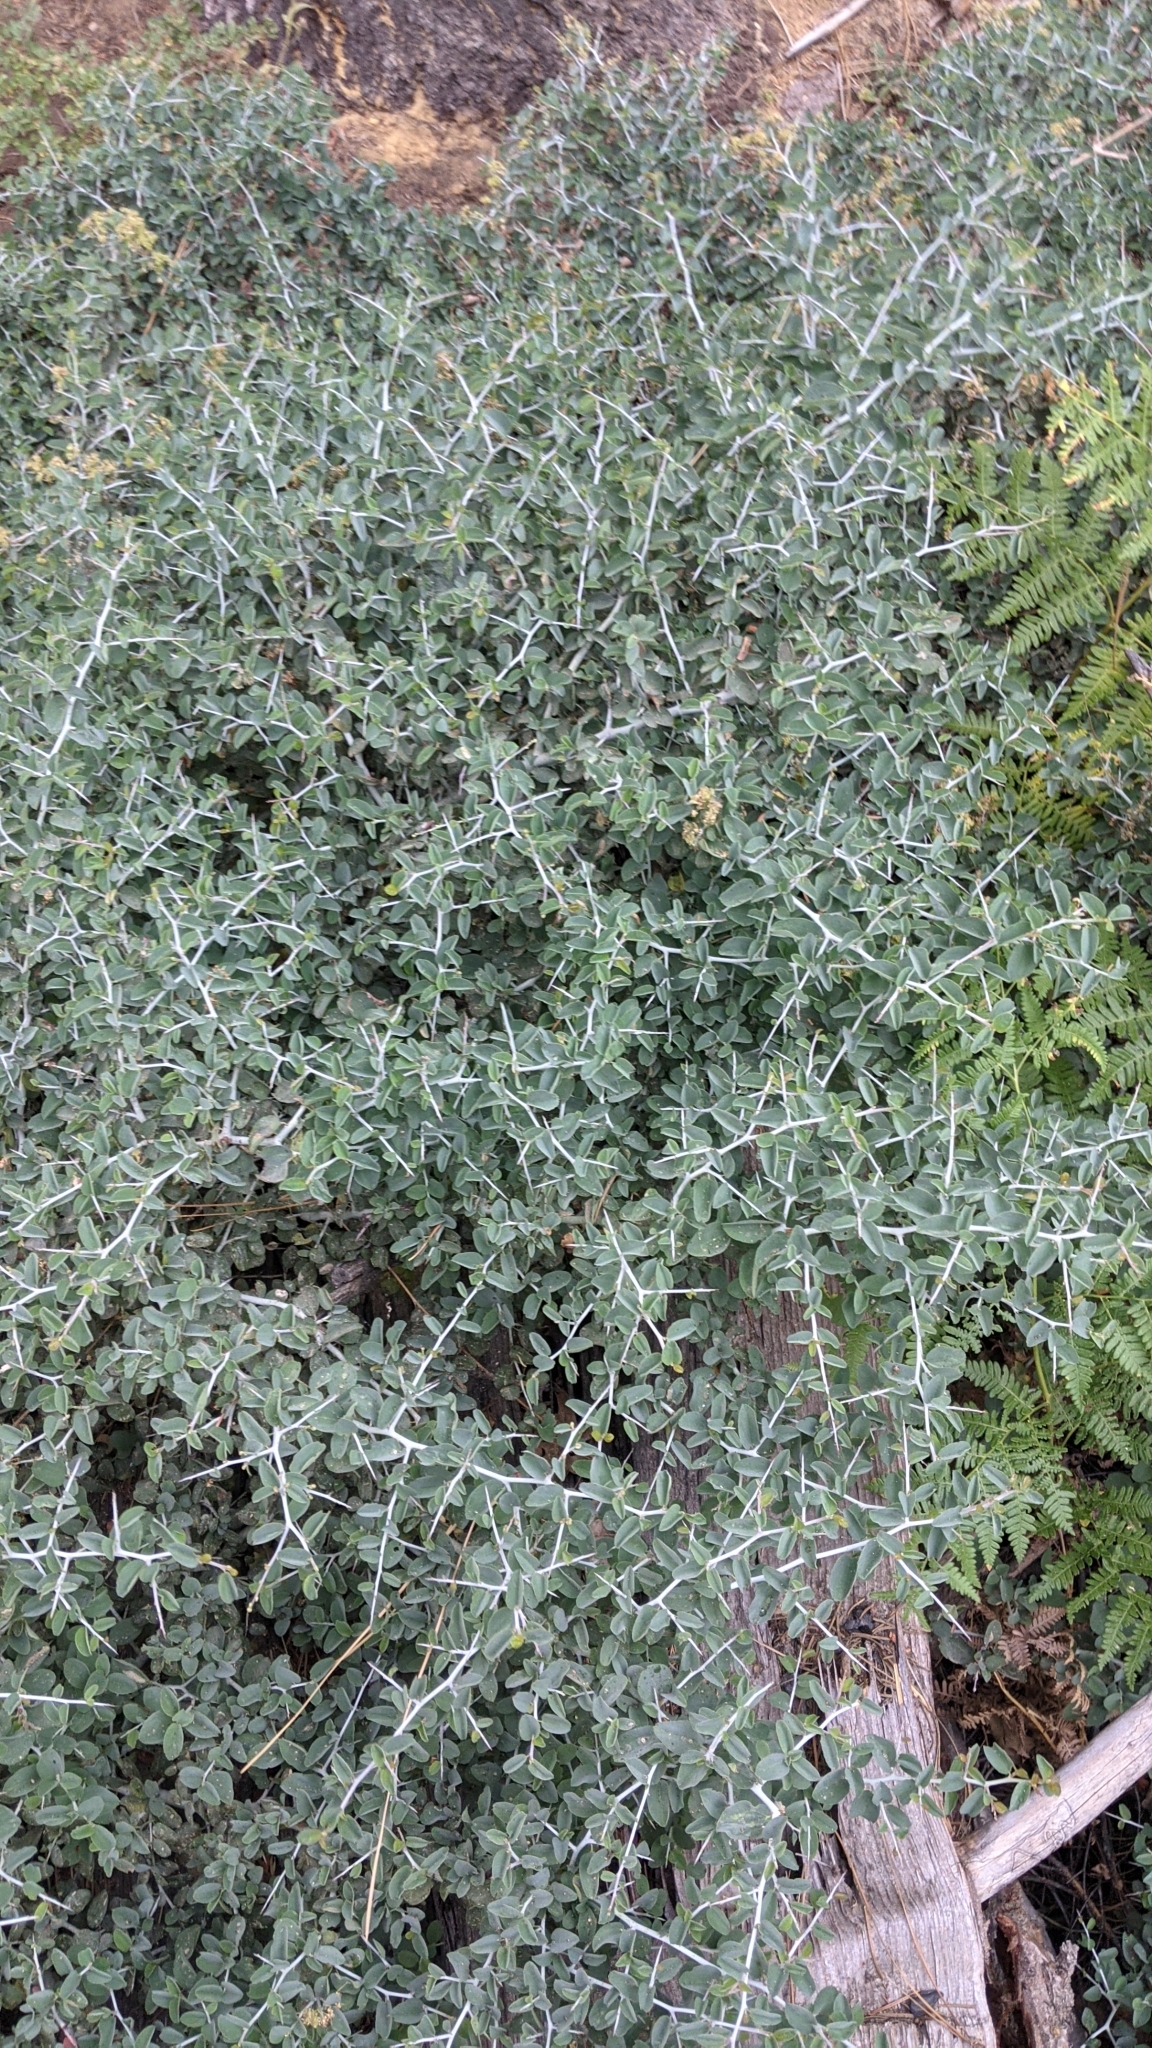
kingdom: Plantae
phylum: Tracheophyta
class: Magnoliopsida
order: Rosales
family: Rhamnaceae
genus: Ceanothus
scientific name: Ceanothus cordulatus
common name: Mountain whitethorn
